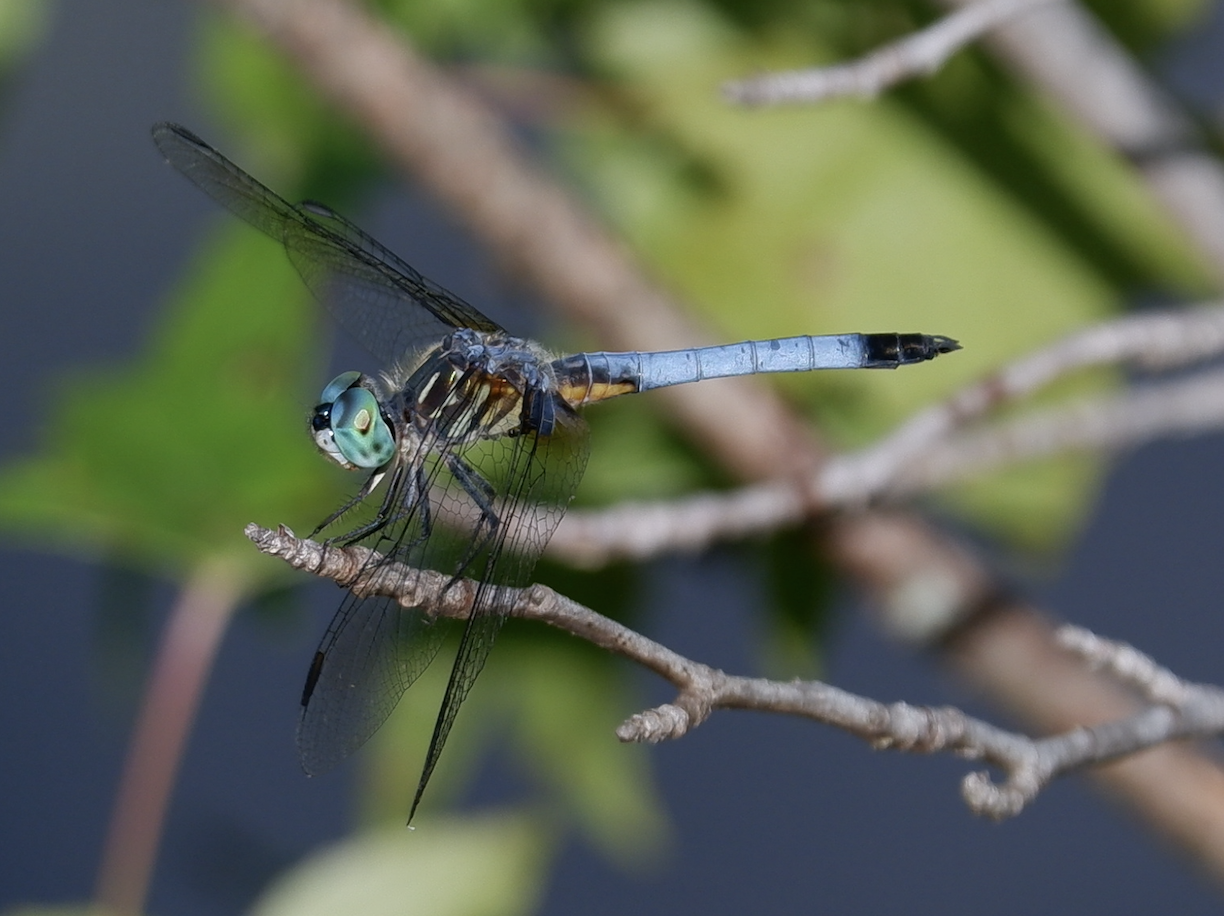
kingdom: Animalia
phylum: Arthropoda
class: Insecta
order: Odonata
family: Libellulidae
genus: Pachydiplax
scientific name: Pachydiplax longipennis
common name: Blue dasher
